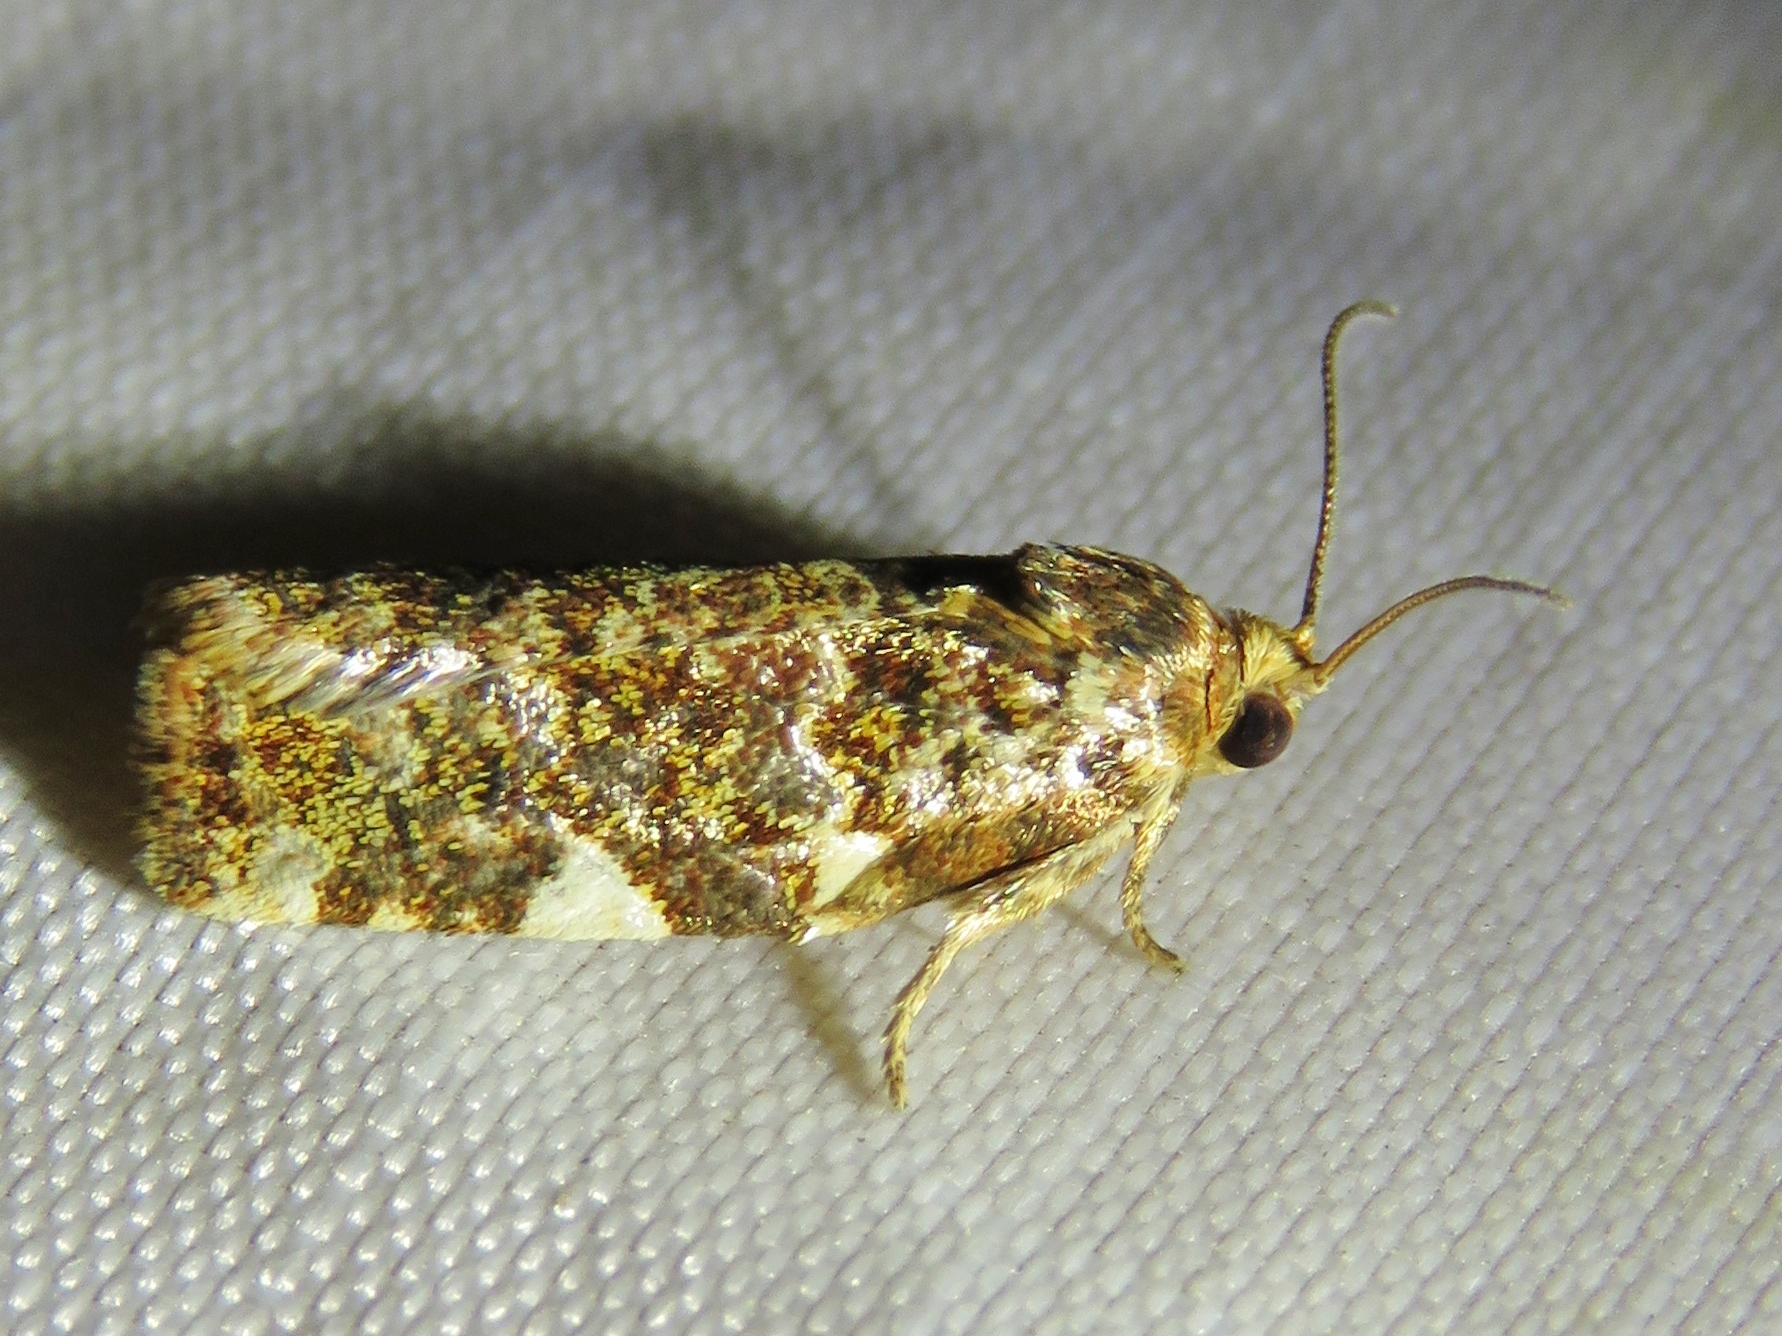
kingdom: Animalia
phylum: Arthropoda
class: Insecta
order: Lepidoptera
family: Tortricidae
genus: Archips
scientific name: Archips argyrospila
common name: Fruit-tree leafroller moth
